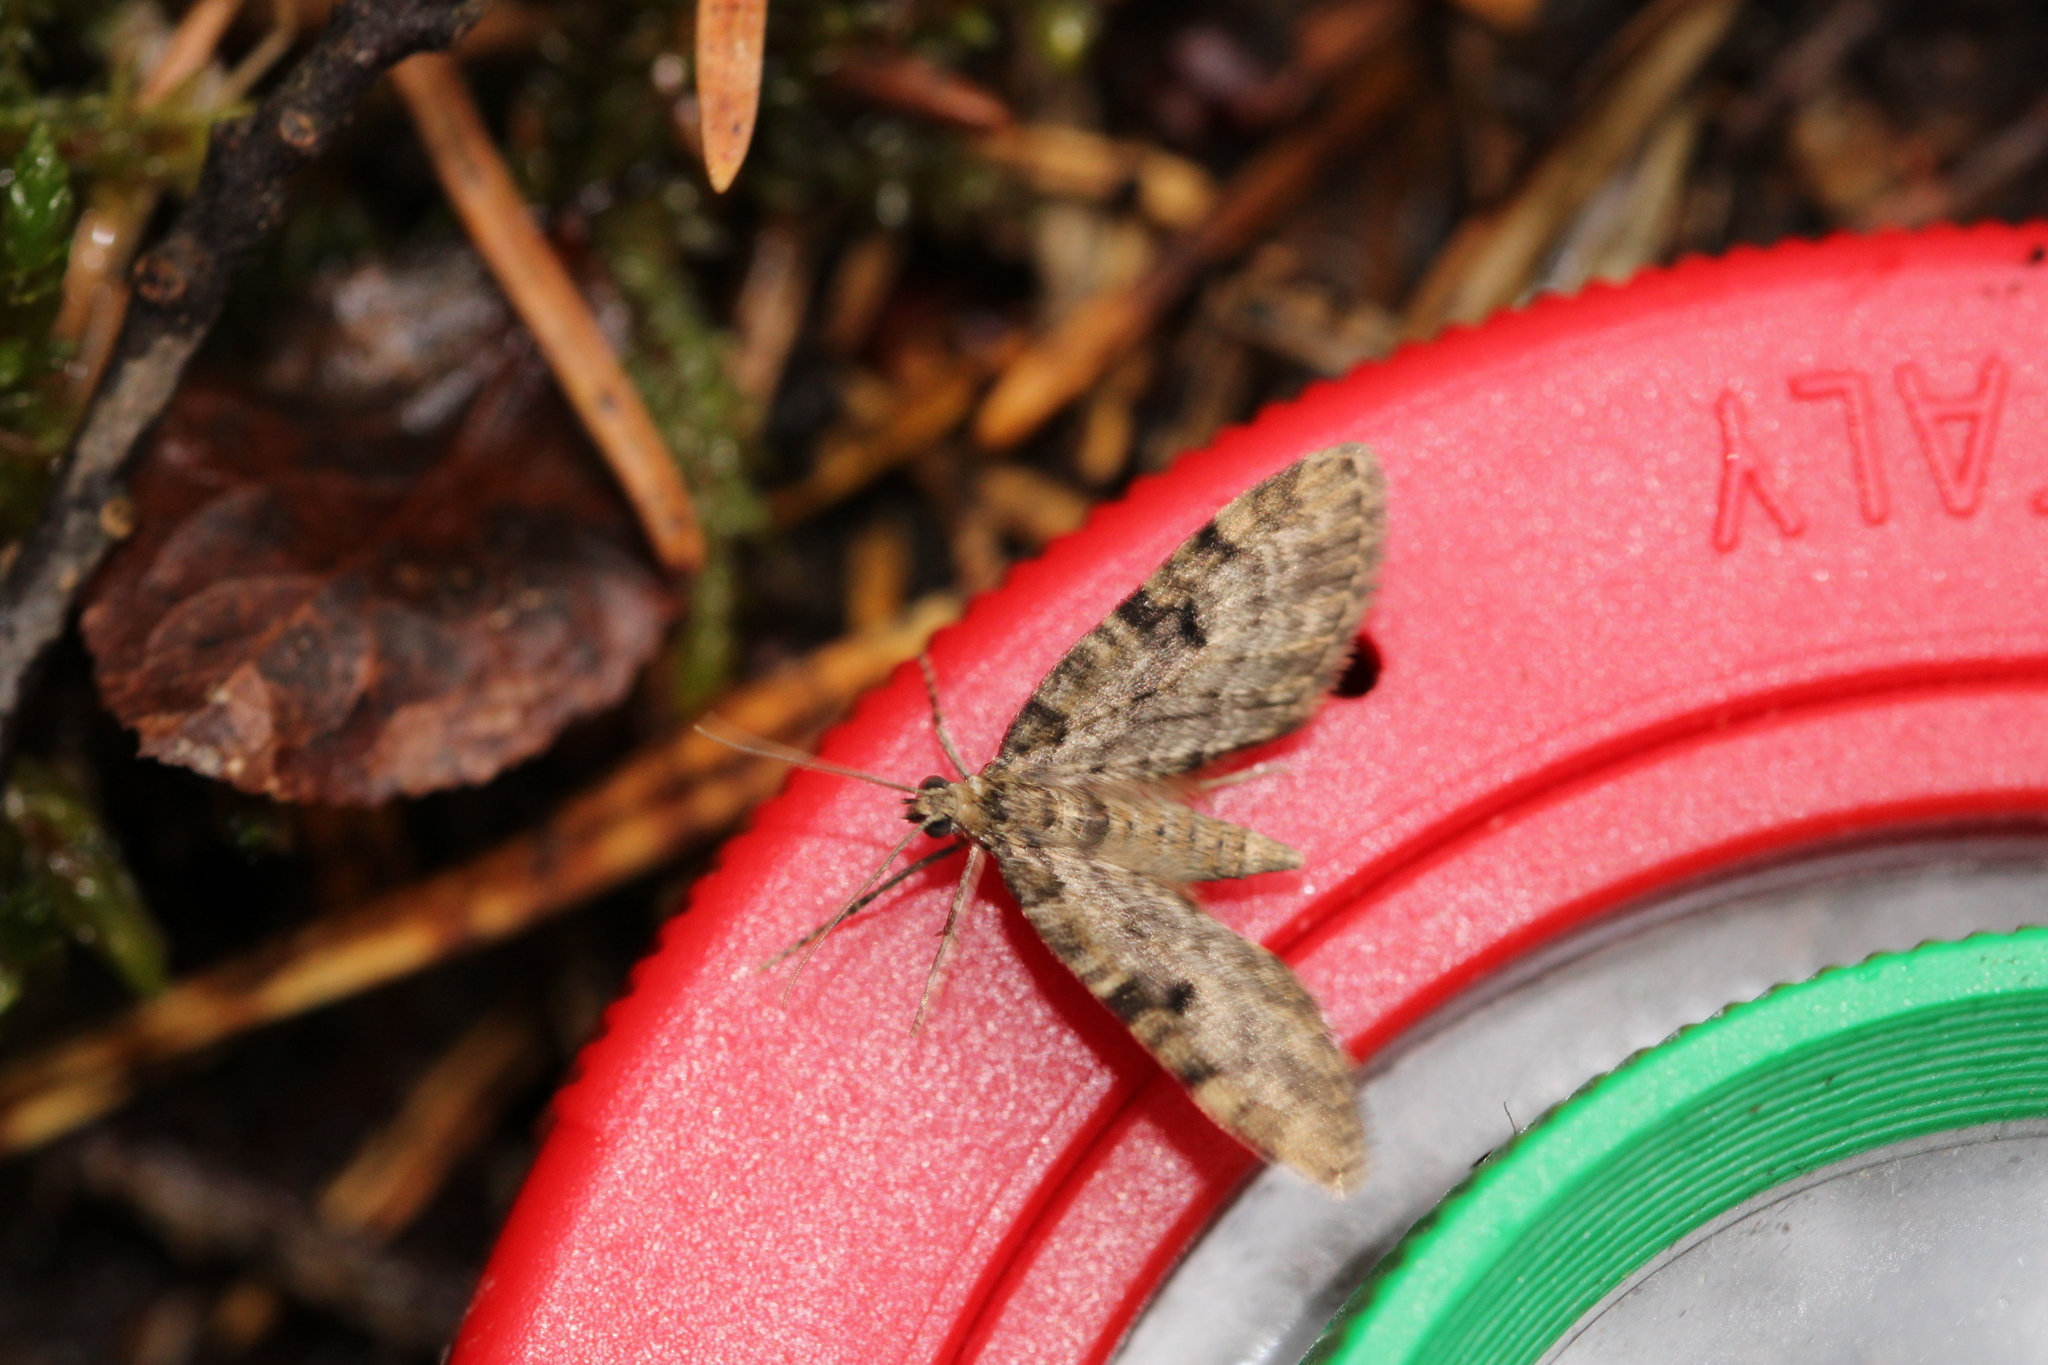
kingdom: Animalia
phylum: Arthropoda
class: Insecta
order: Lepidoptera
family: Geometridae
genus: Eupithecia
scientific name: Eupithecia tantillaria
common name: Dwarf pug
